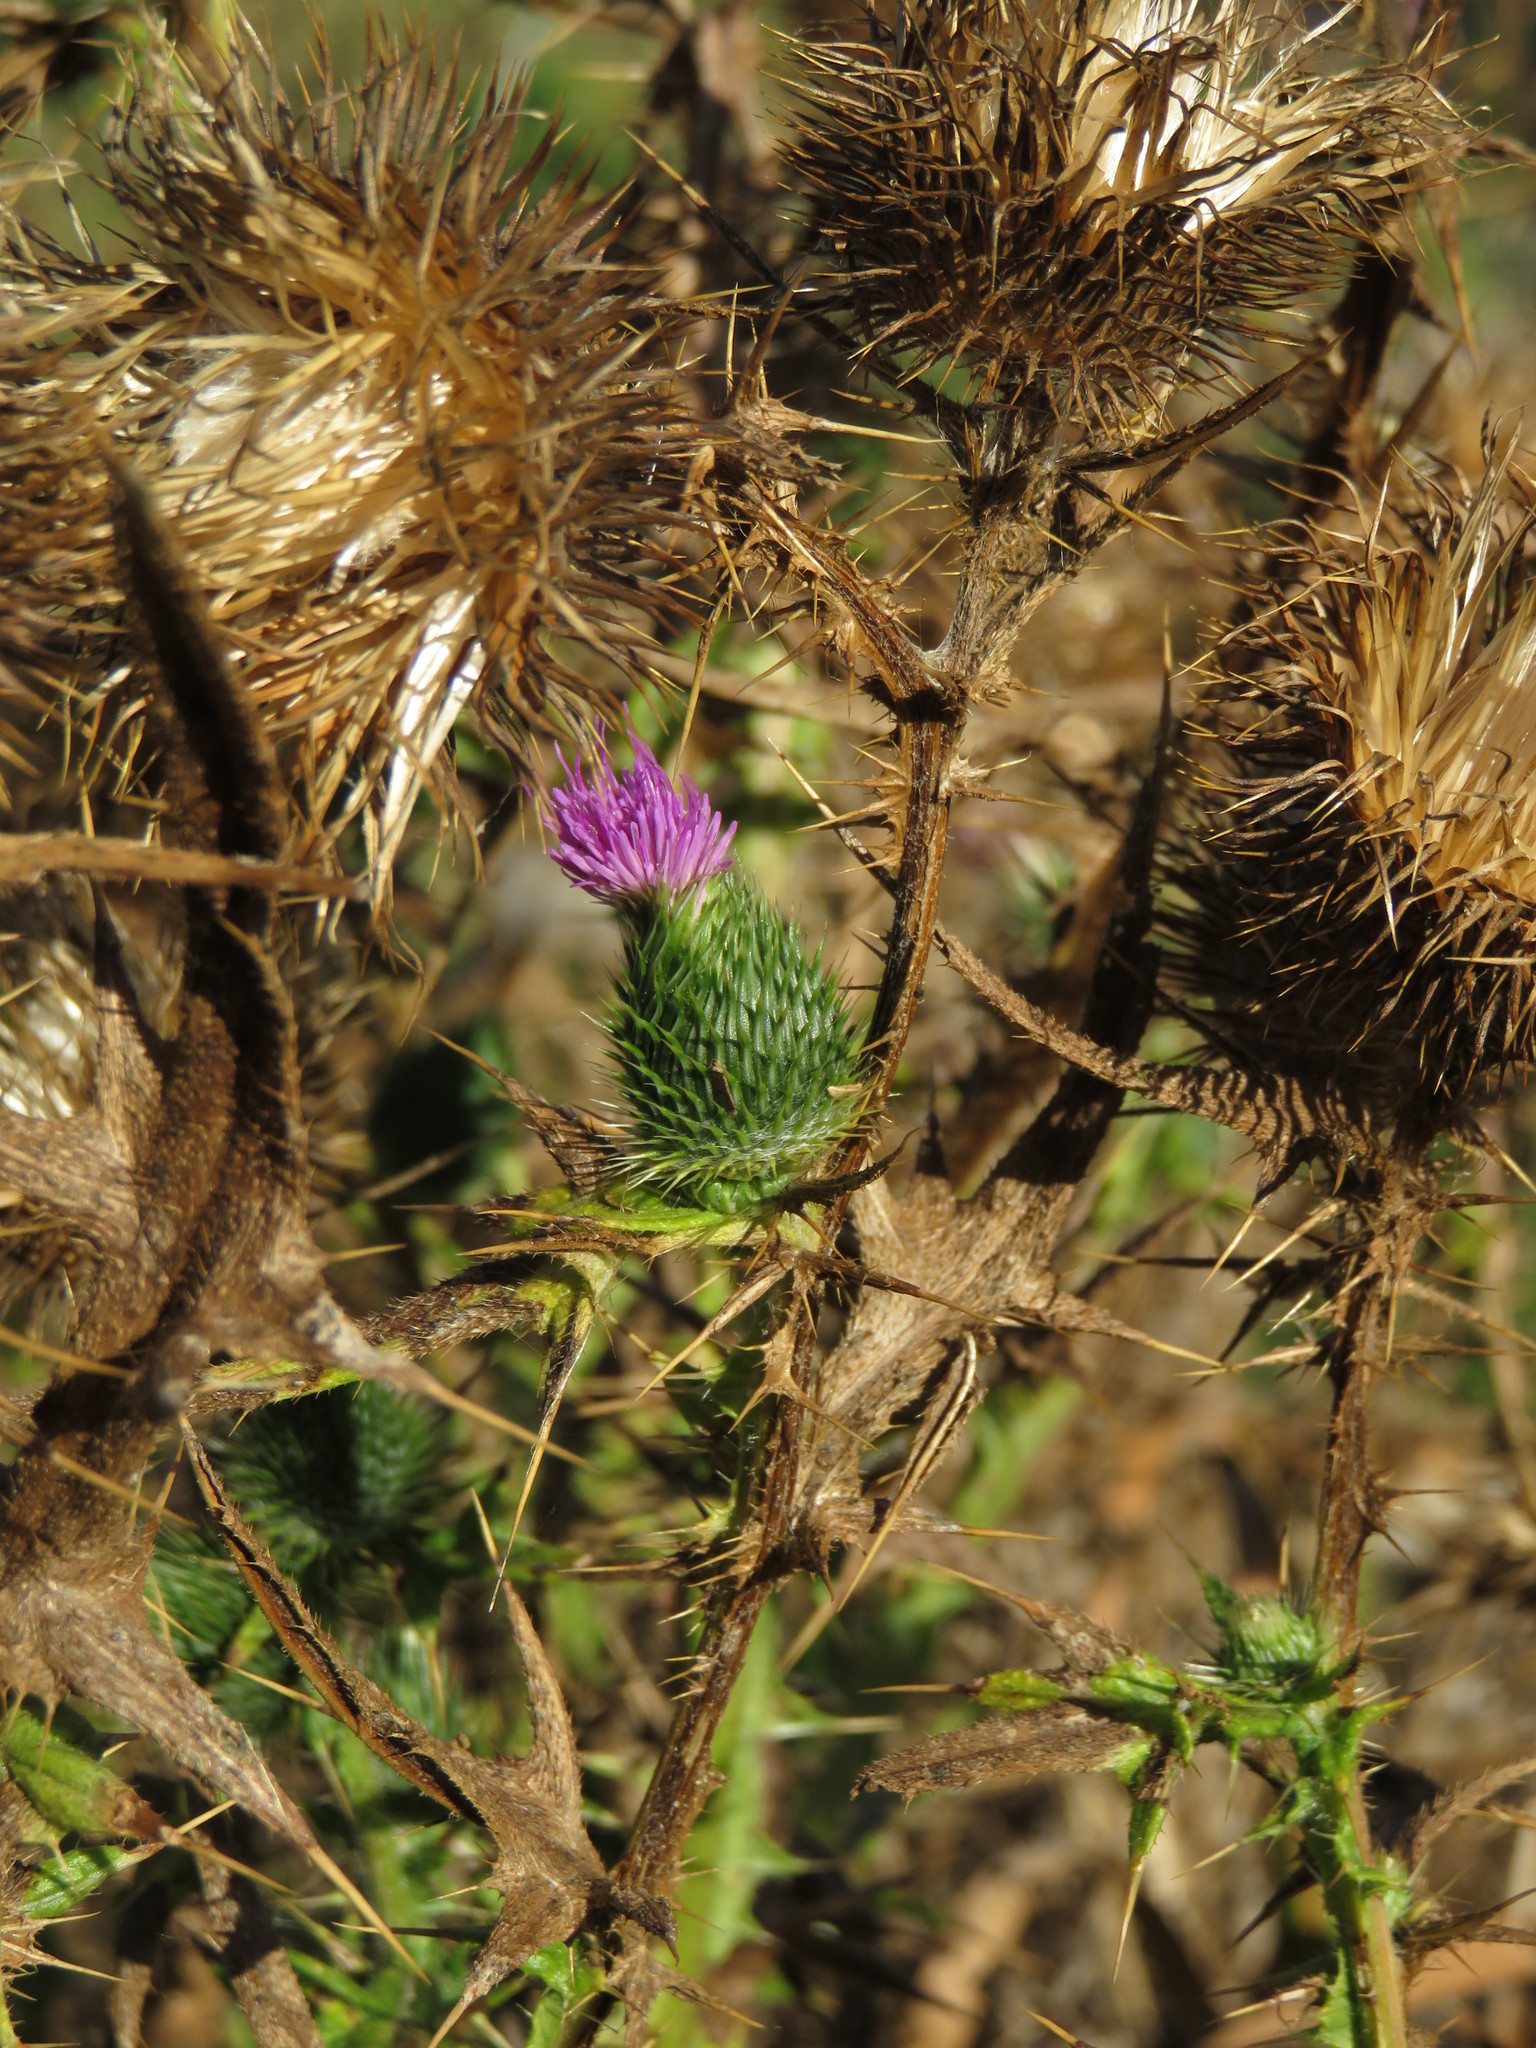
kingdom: Plantae
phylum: Tracheophyta
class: Magnoliopsida
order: Asterales
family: Asteraceae
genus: Cirsium
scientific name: Cirsium vulgare
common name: Bull thistle
